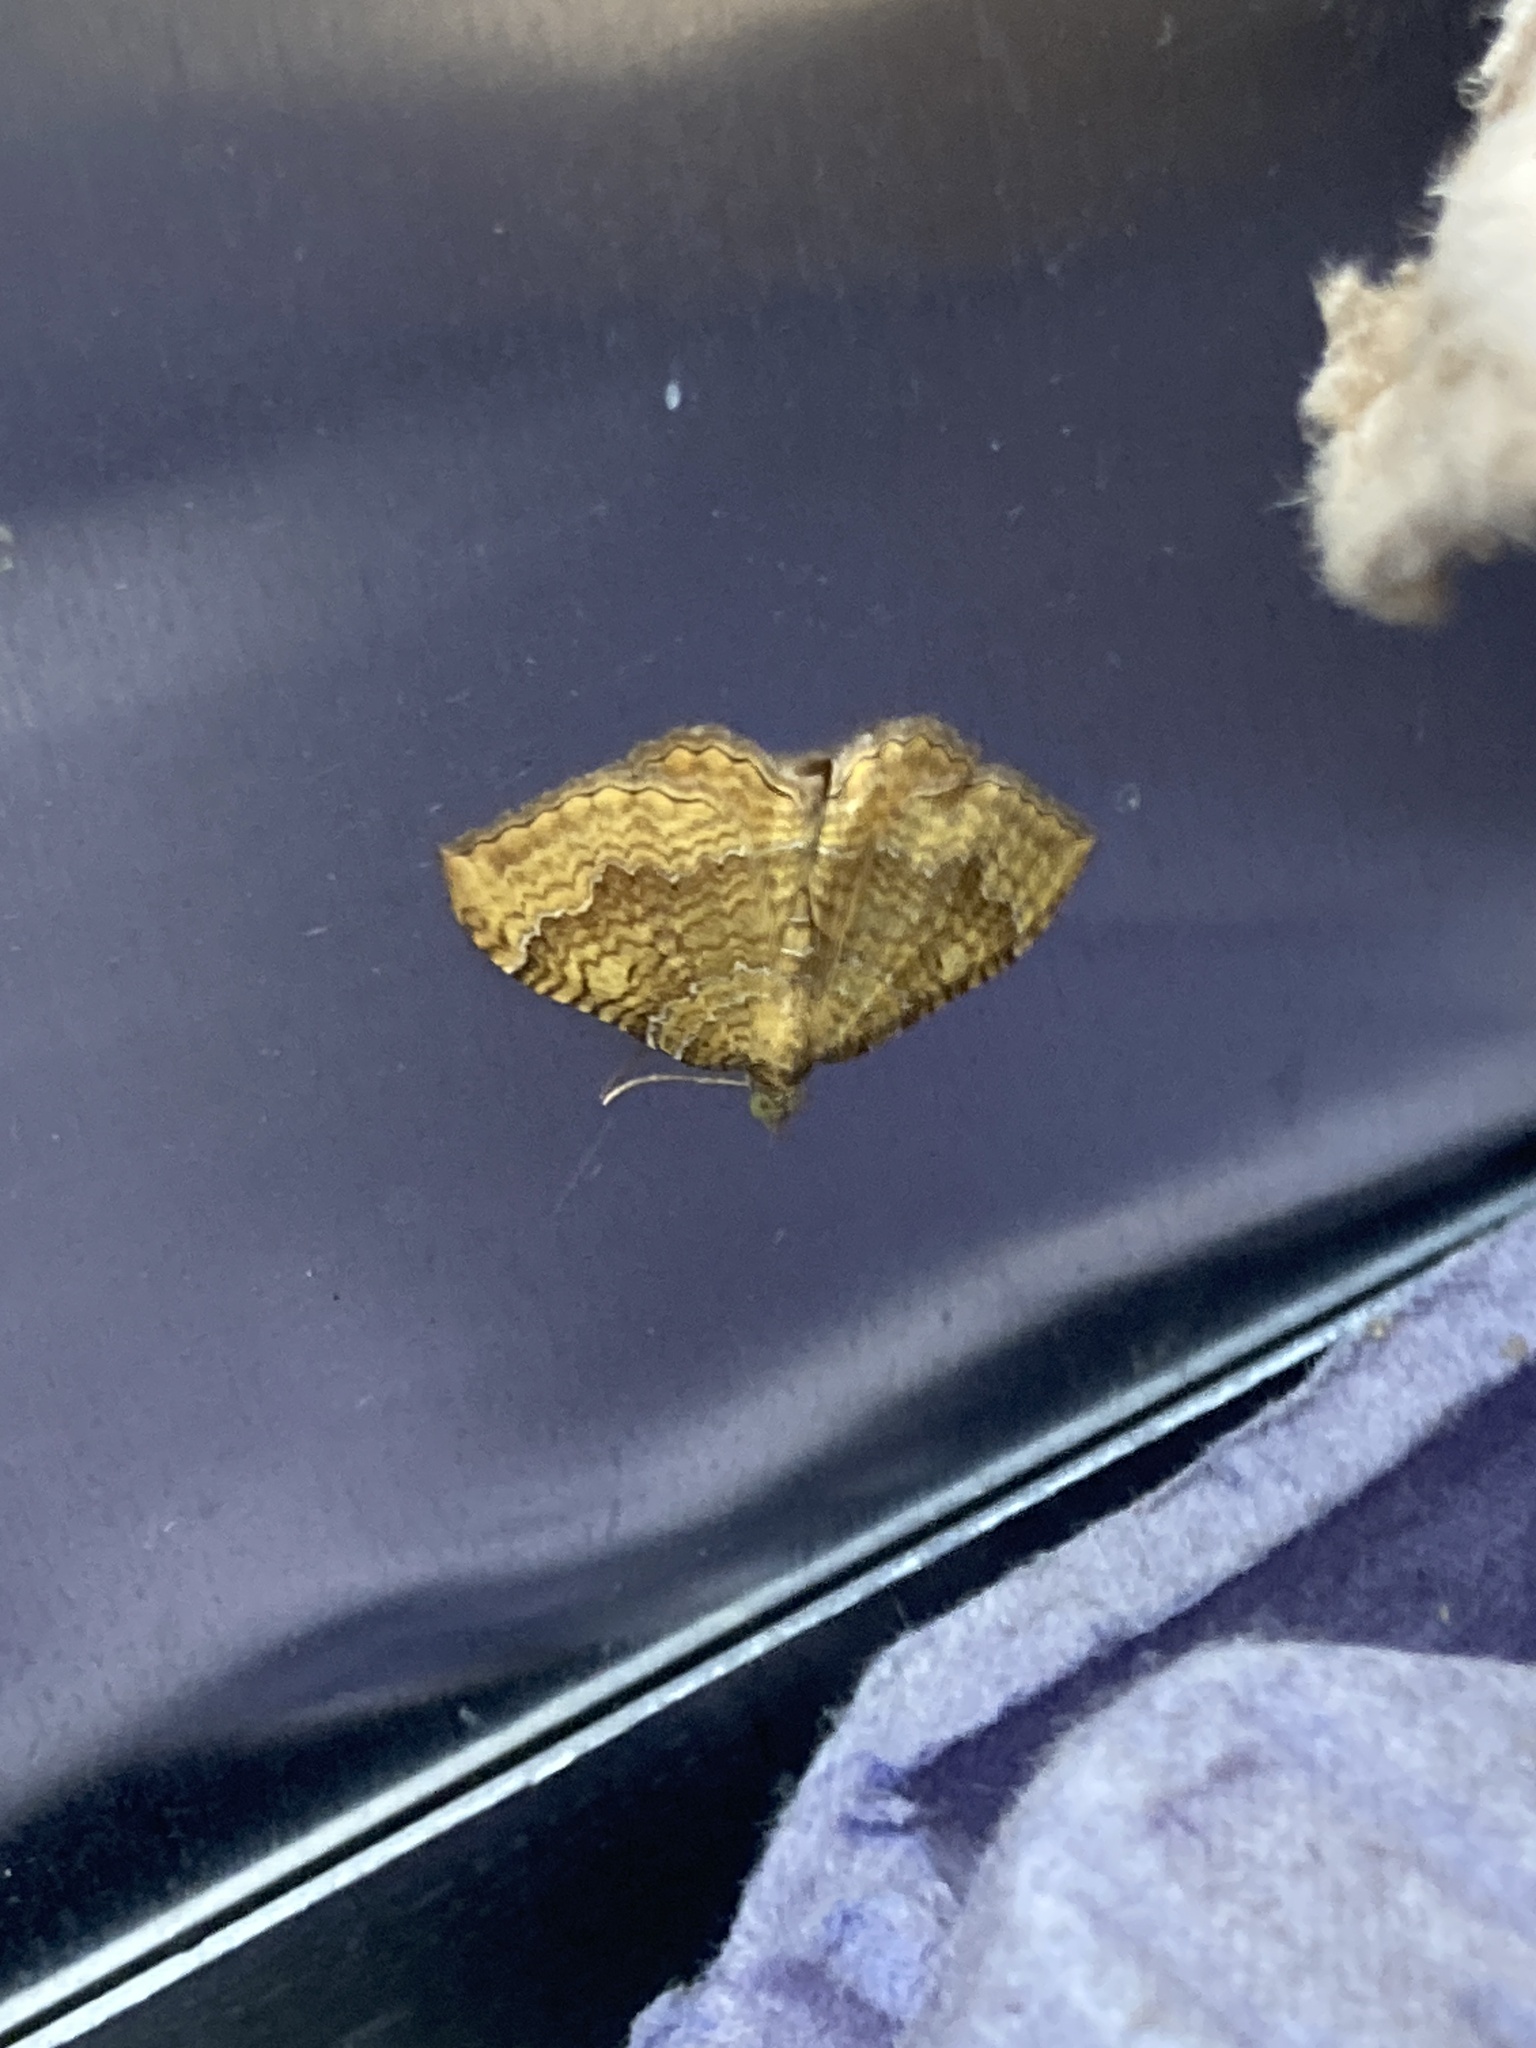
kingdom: Animalia
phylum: Arthropoda
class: Insecta
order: Lepidoptera
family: Geometridae
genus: Camptogramma
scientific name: Camptogramma bilineata
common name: Yellow shell
